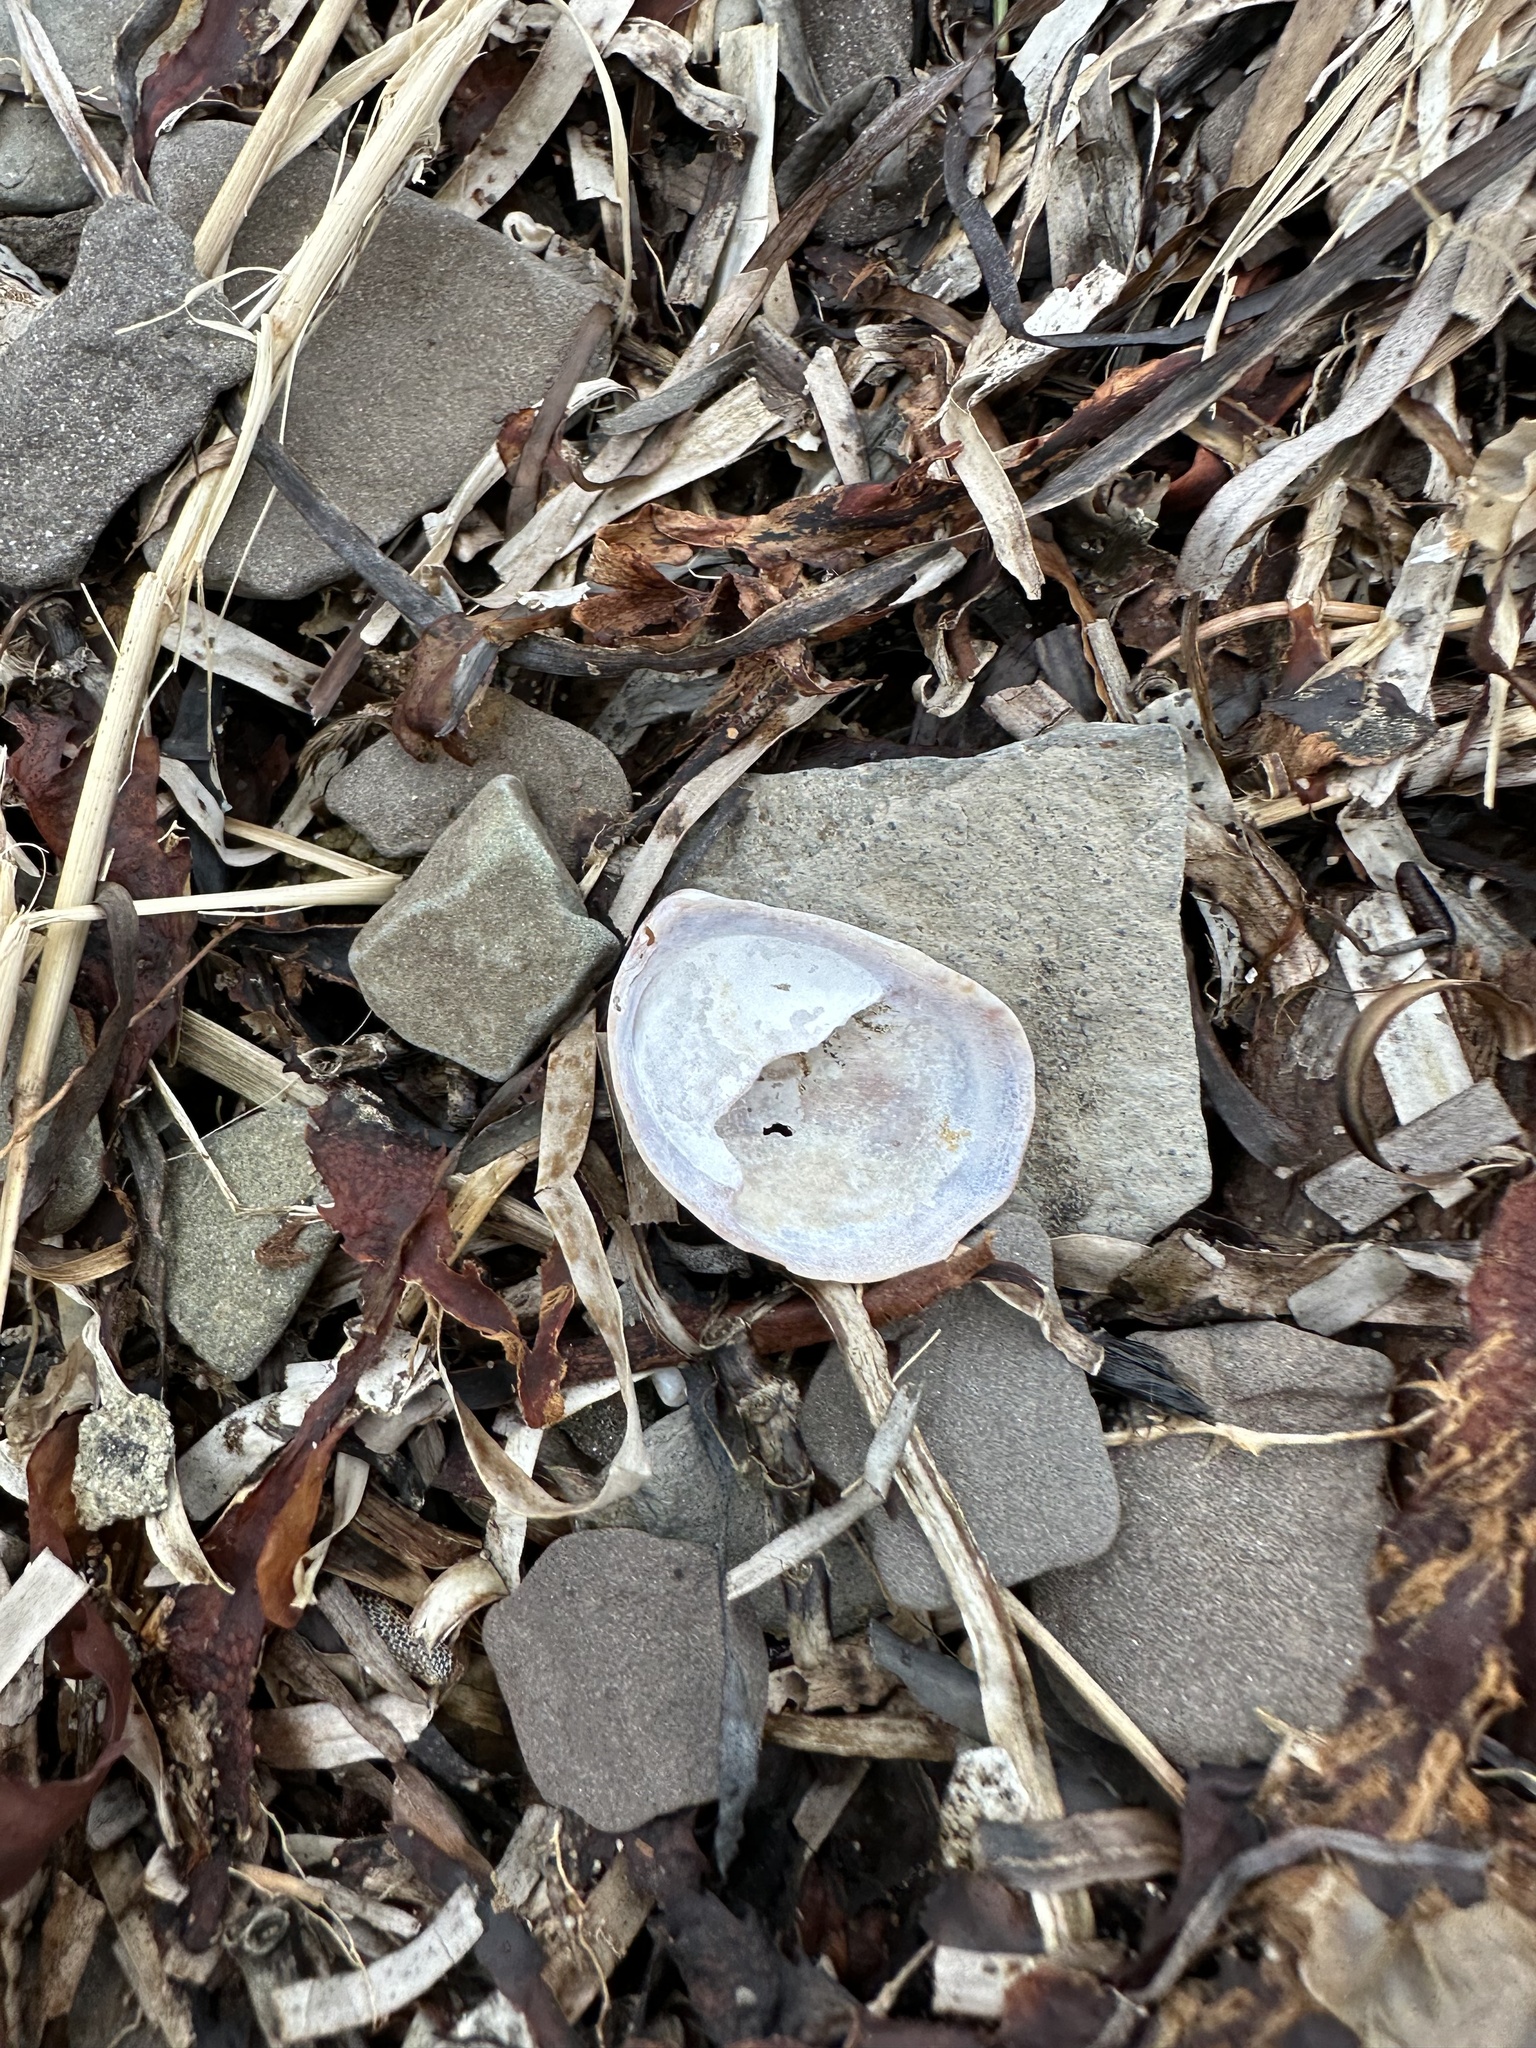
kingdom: Animalia
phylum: Mollusca
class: Gastropoda
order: Littorinimorpha
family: Calyptraeidae
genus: Crepidula
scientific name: Crepidula fornicata
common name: Slipper limpet
